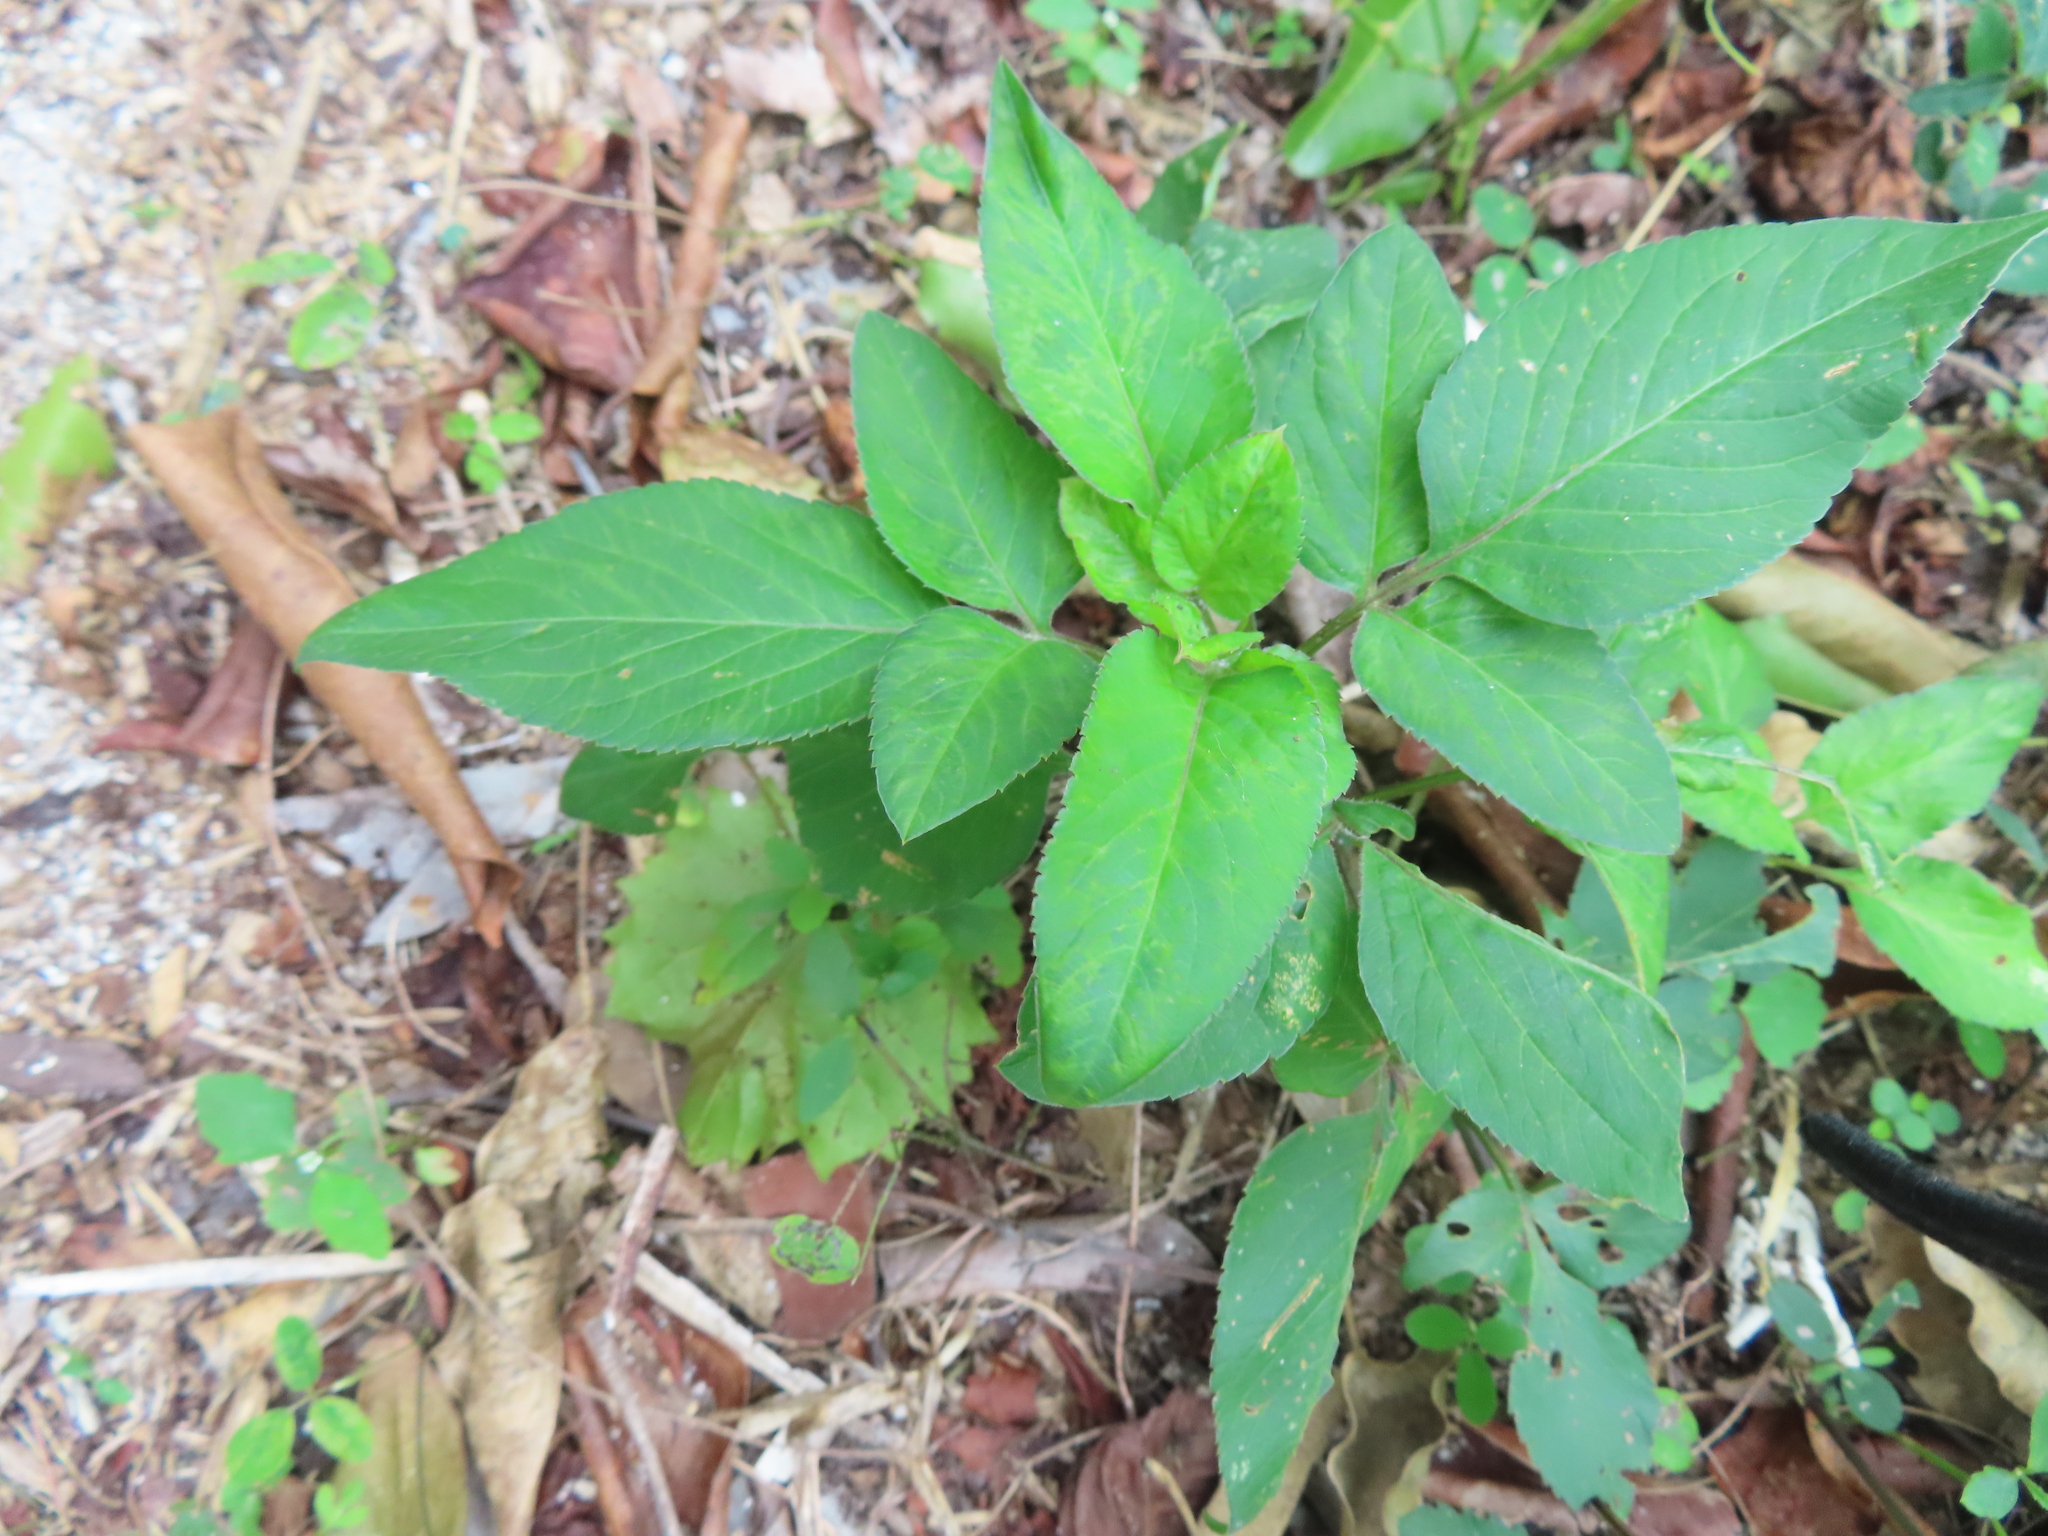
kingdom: Plantae
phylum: Tracheophyta
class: Magnoliopsida
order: Asterales
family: Asteraceae
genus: Bidens
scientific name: Bidens alba
